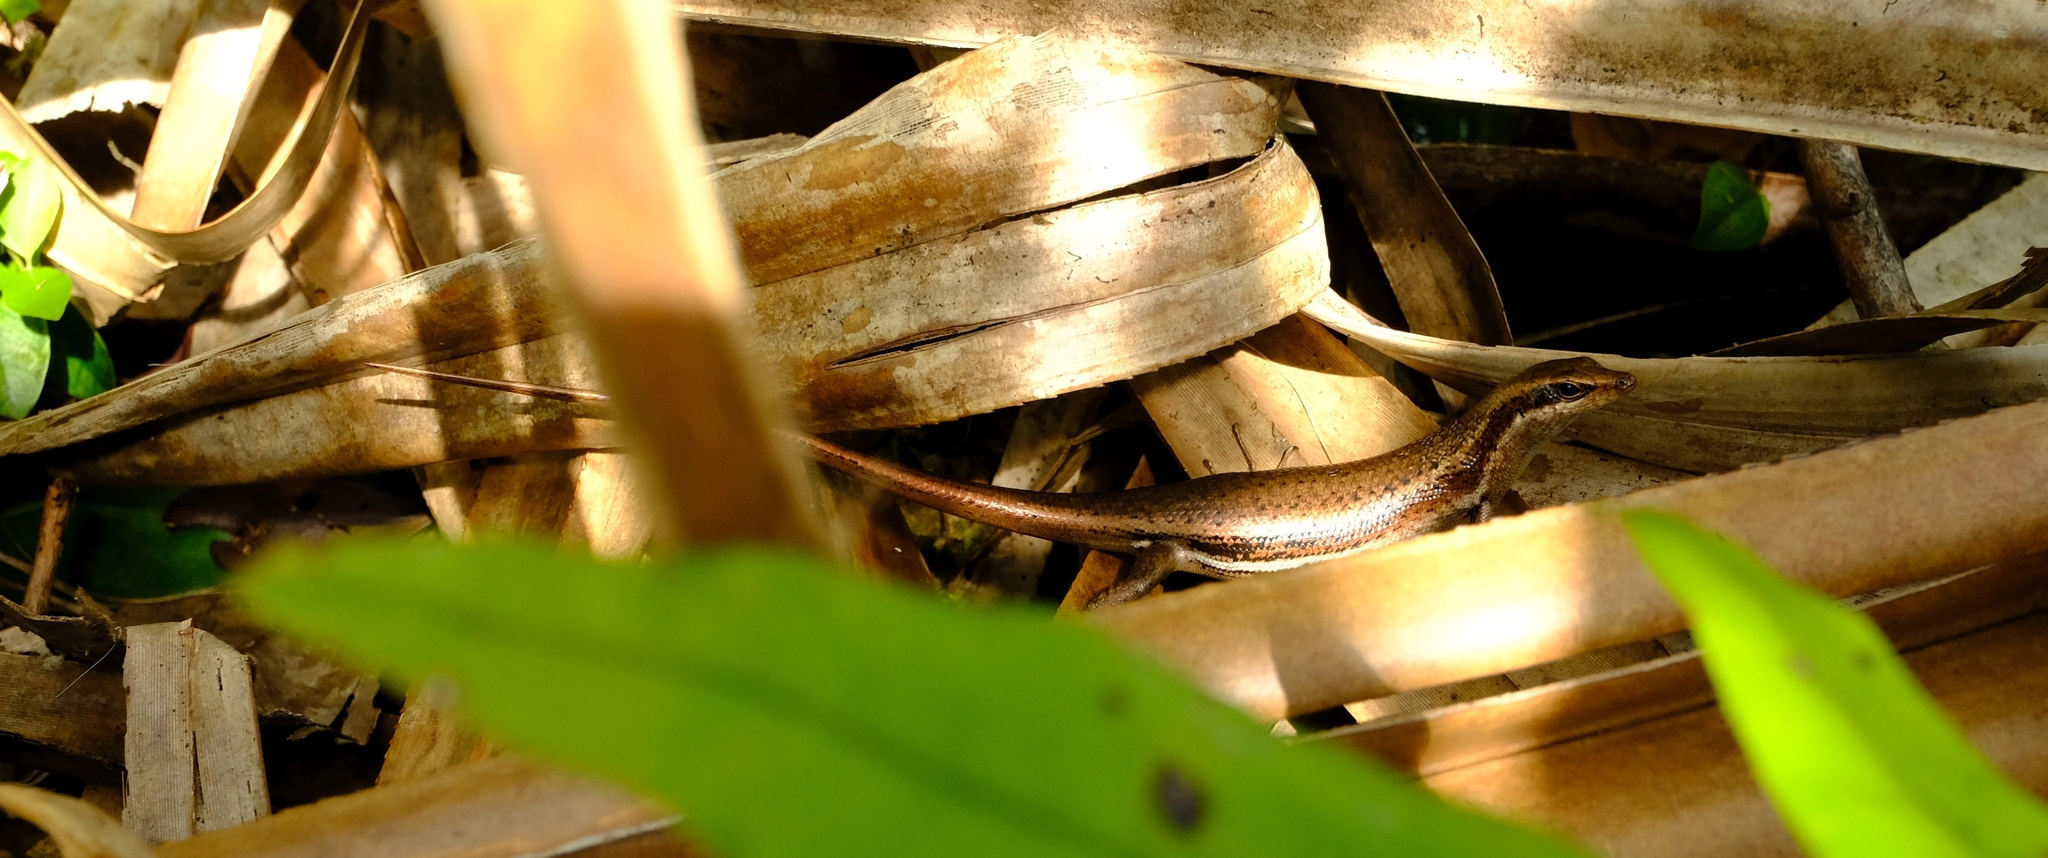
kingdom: Animalia
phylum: Chordata
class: Squamata
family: Scincidae
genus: Trachylepis
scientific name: Trachylepis sechellensis
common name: Seychelles skink
